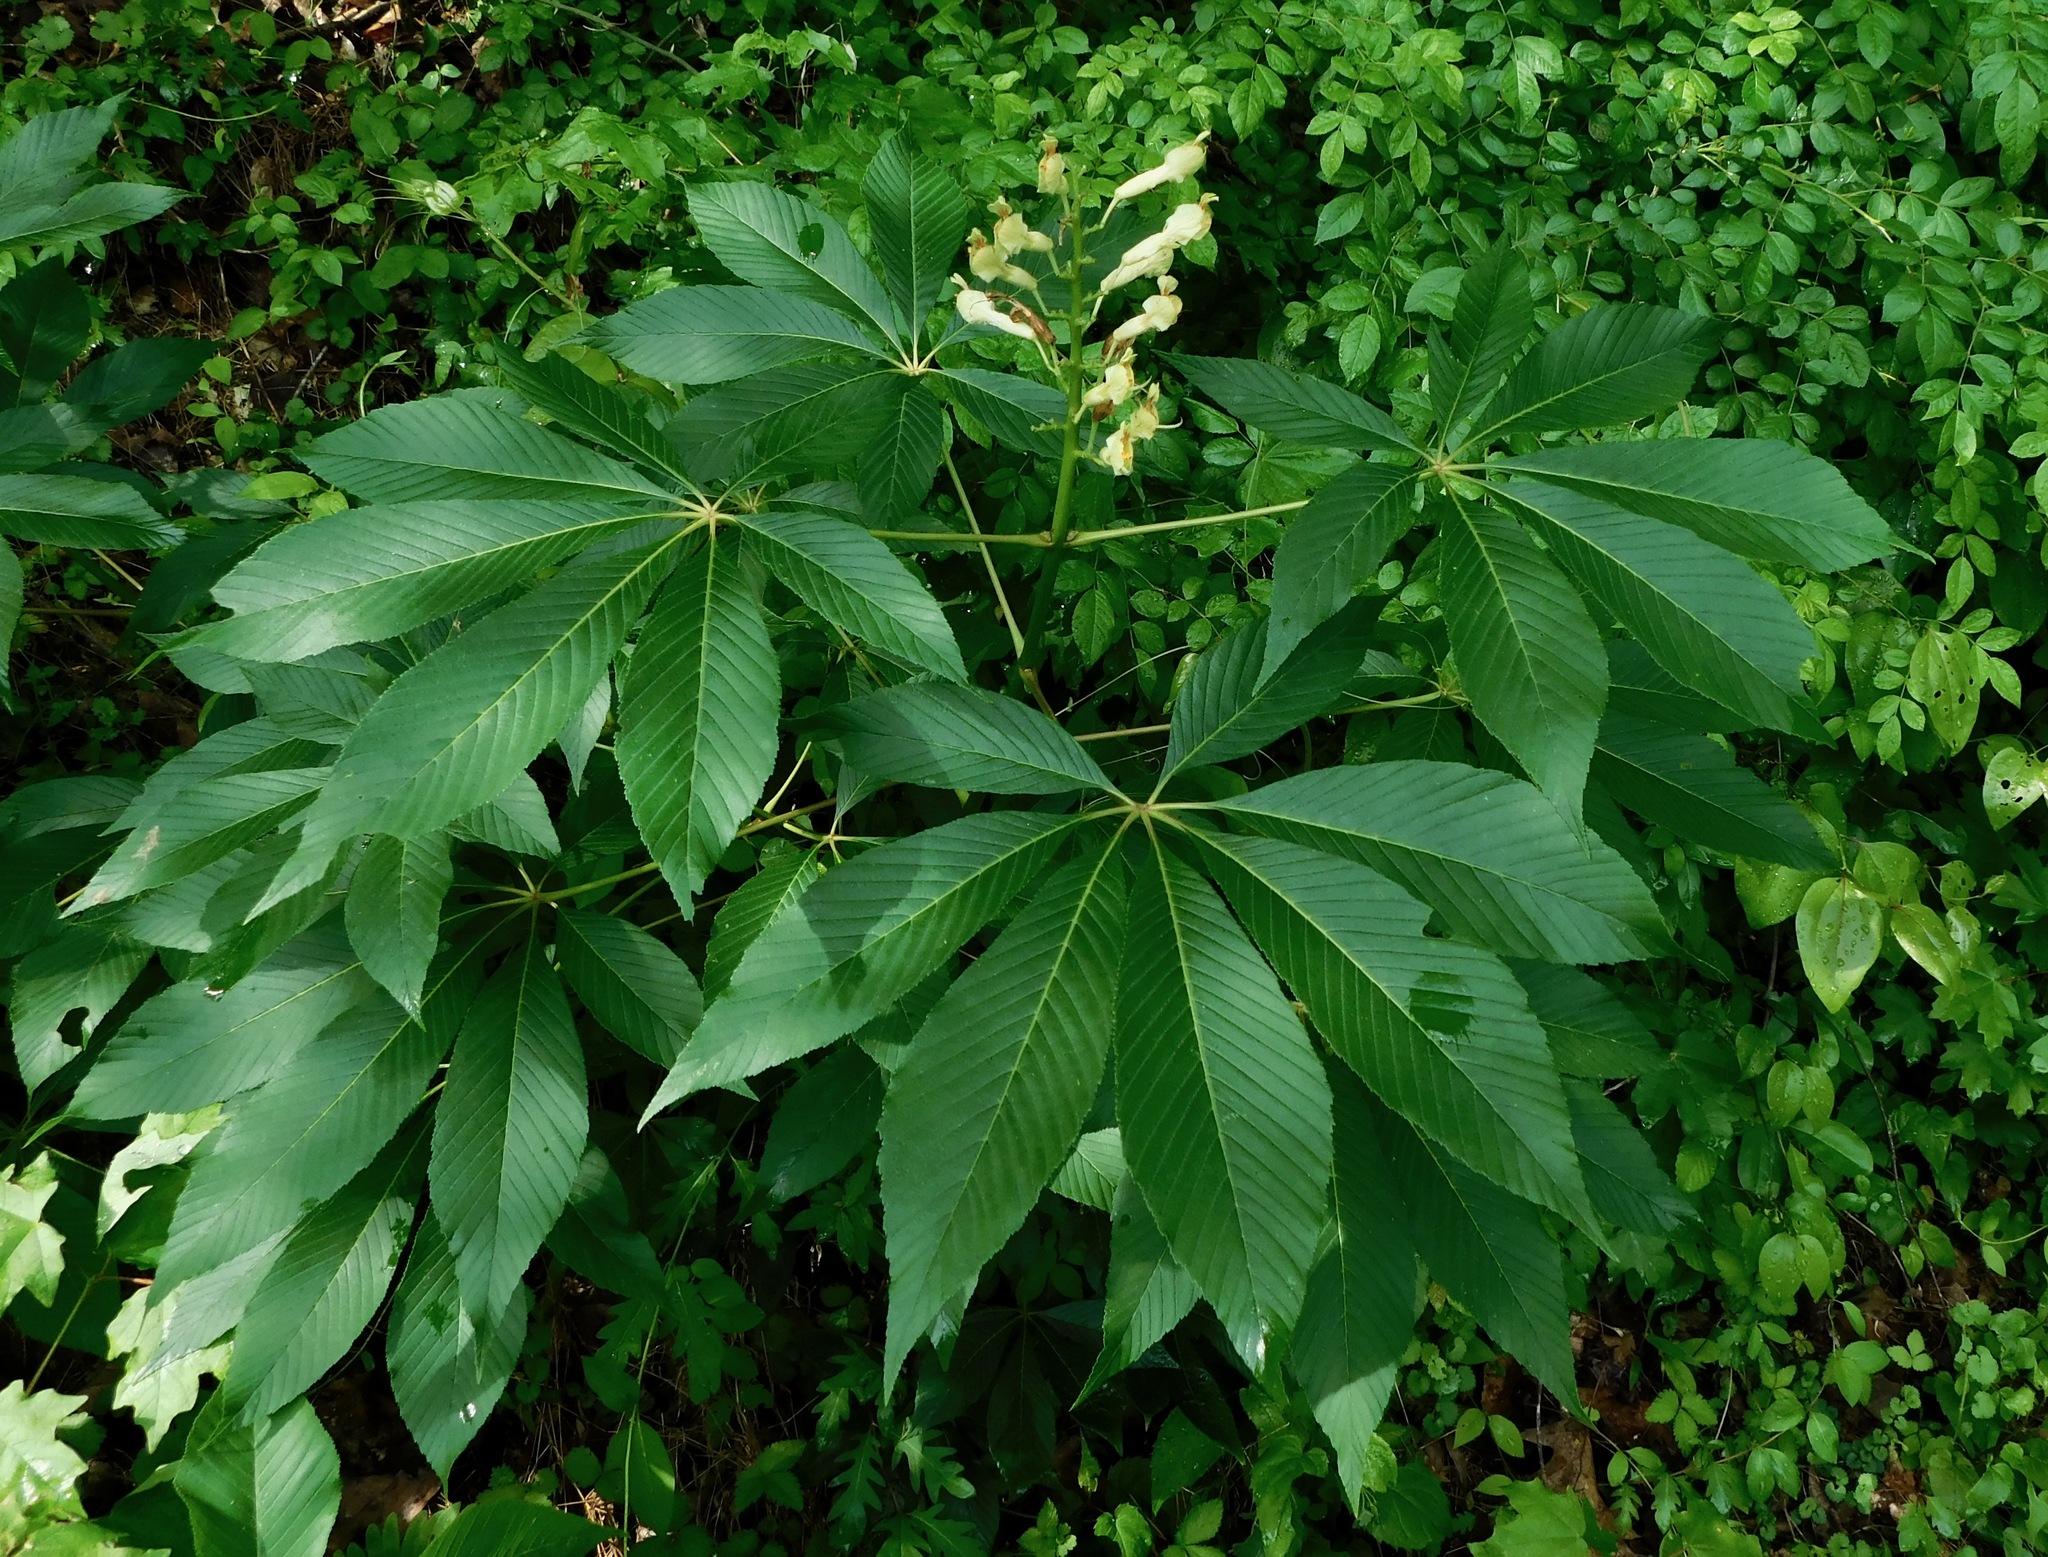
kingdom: Plantae
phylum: Tracheophyta
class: Magnoliopsida
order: Sapindales
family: Sapindaceae
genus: Aesculus
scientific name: Aesculus sylvatica
